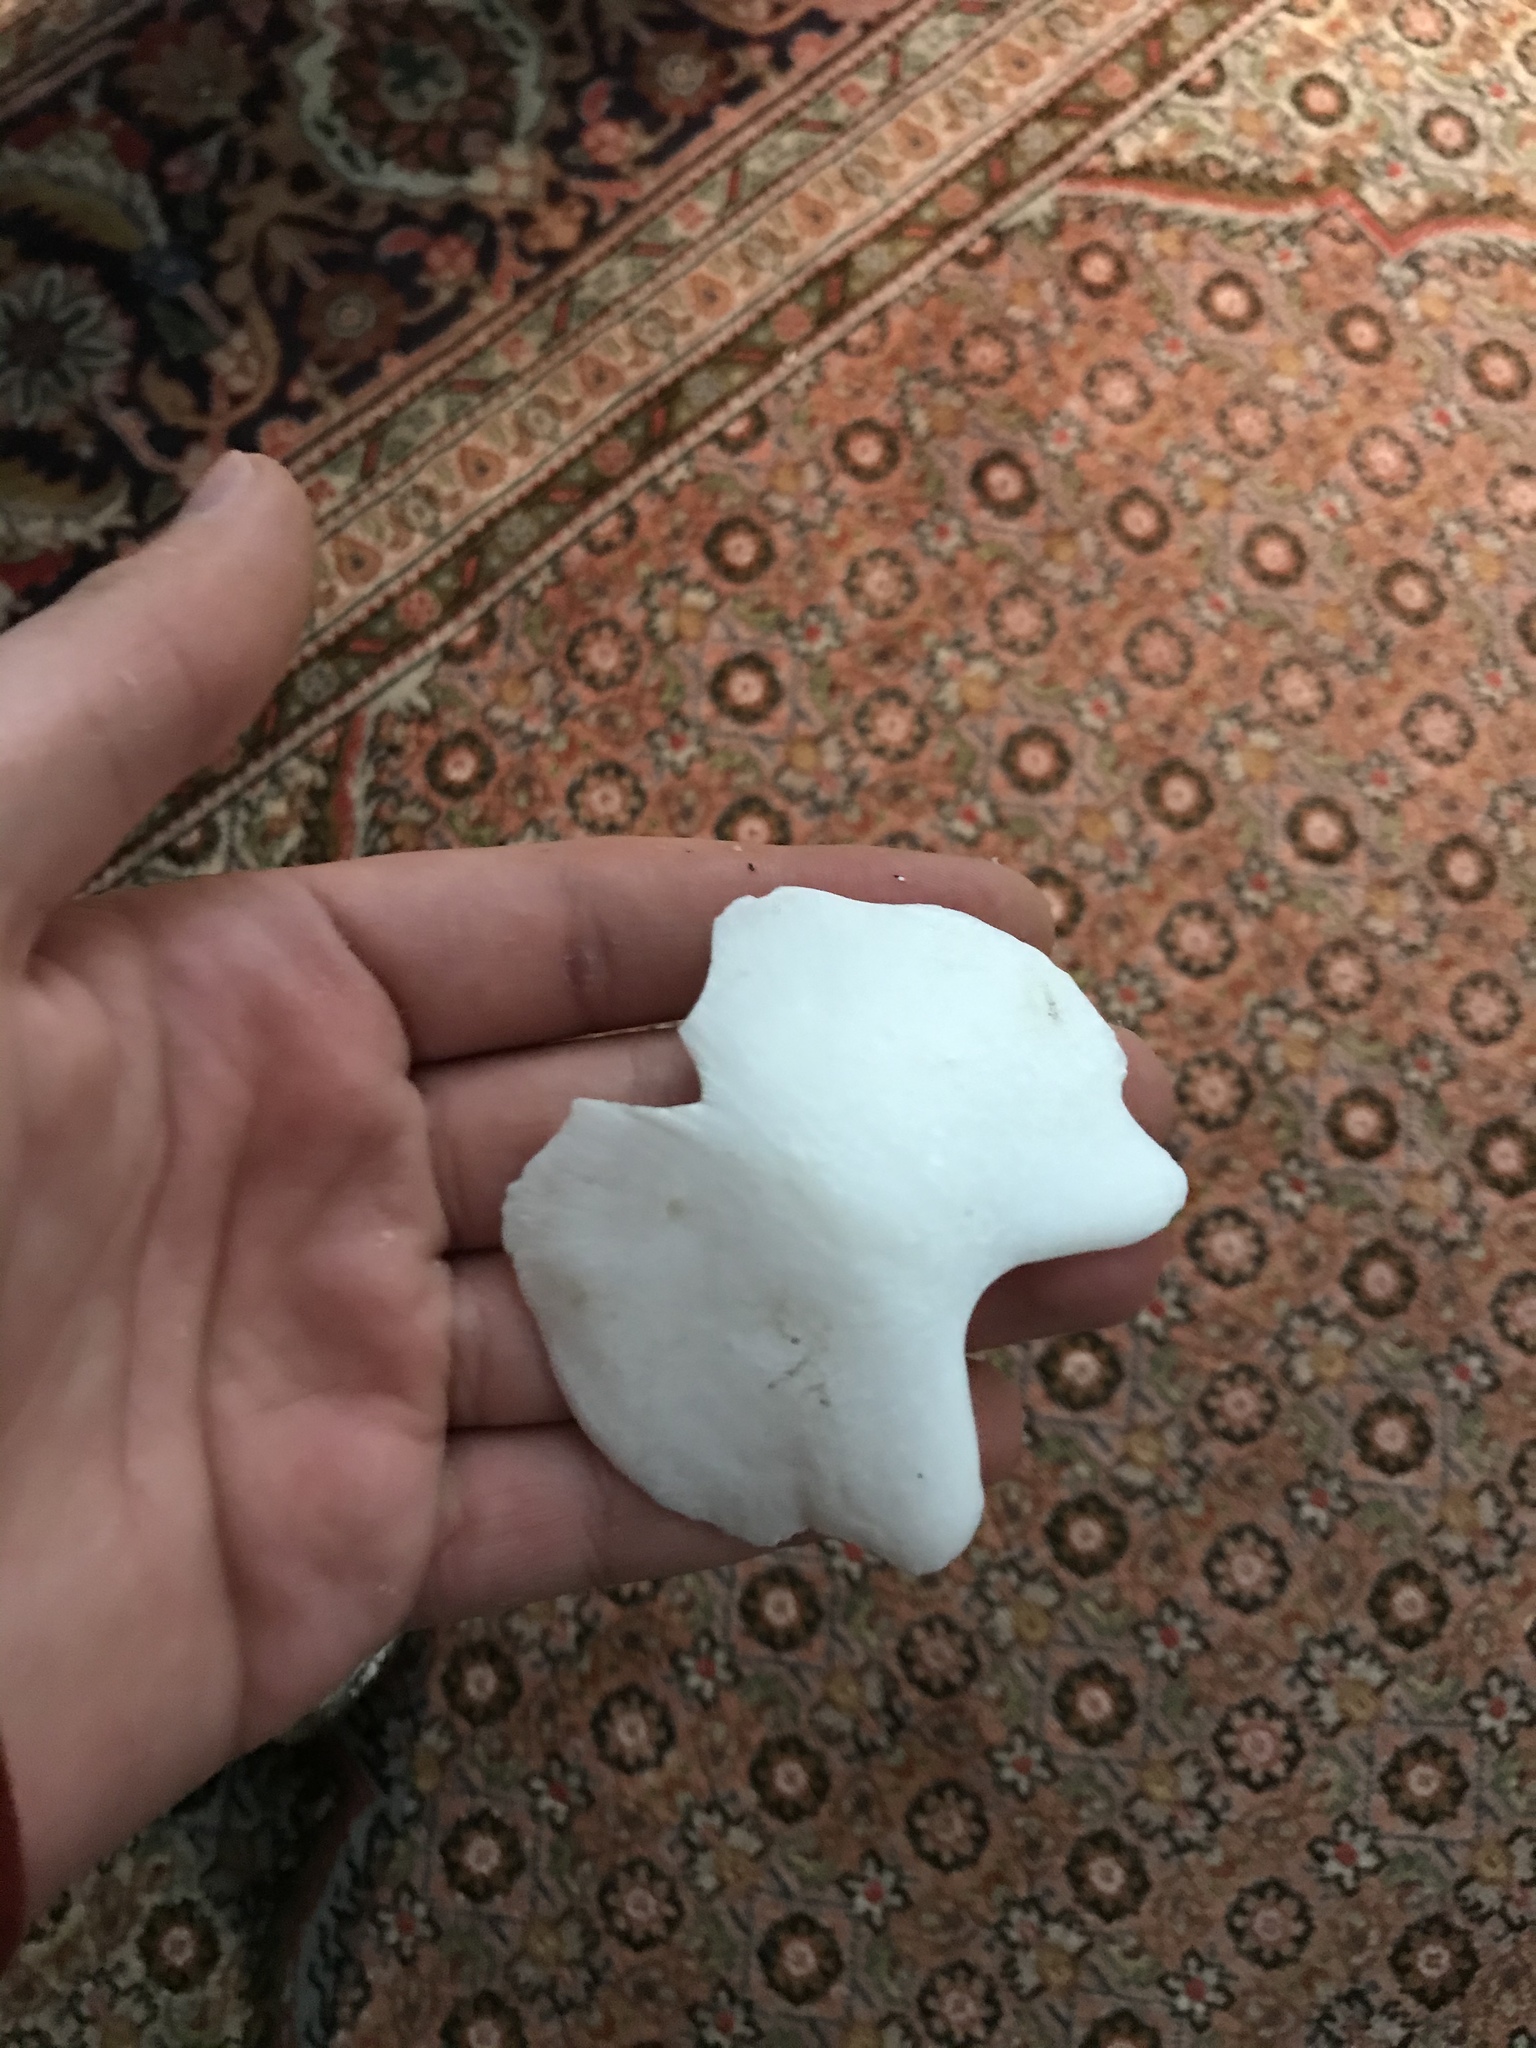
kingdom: Animalia
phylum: Mollusca
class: Polyplacophora
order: Chitonida
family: Acanthochitonidae
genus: Cryptochiton
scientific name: Cryptochiton stelleri
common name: Giant pacific chiton
